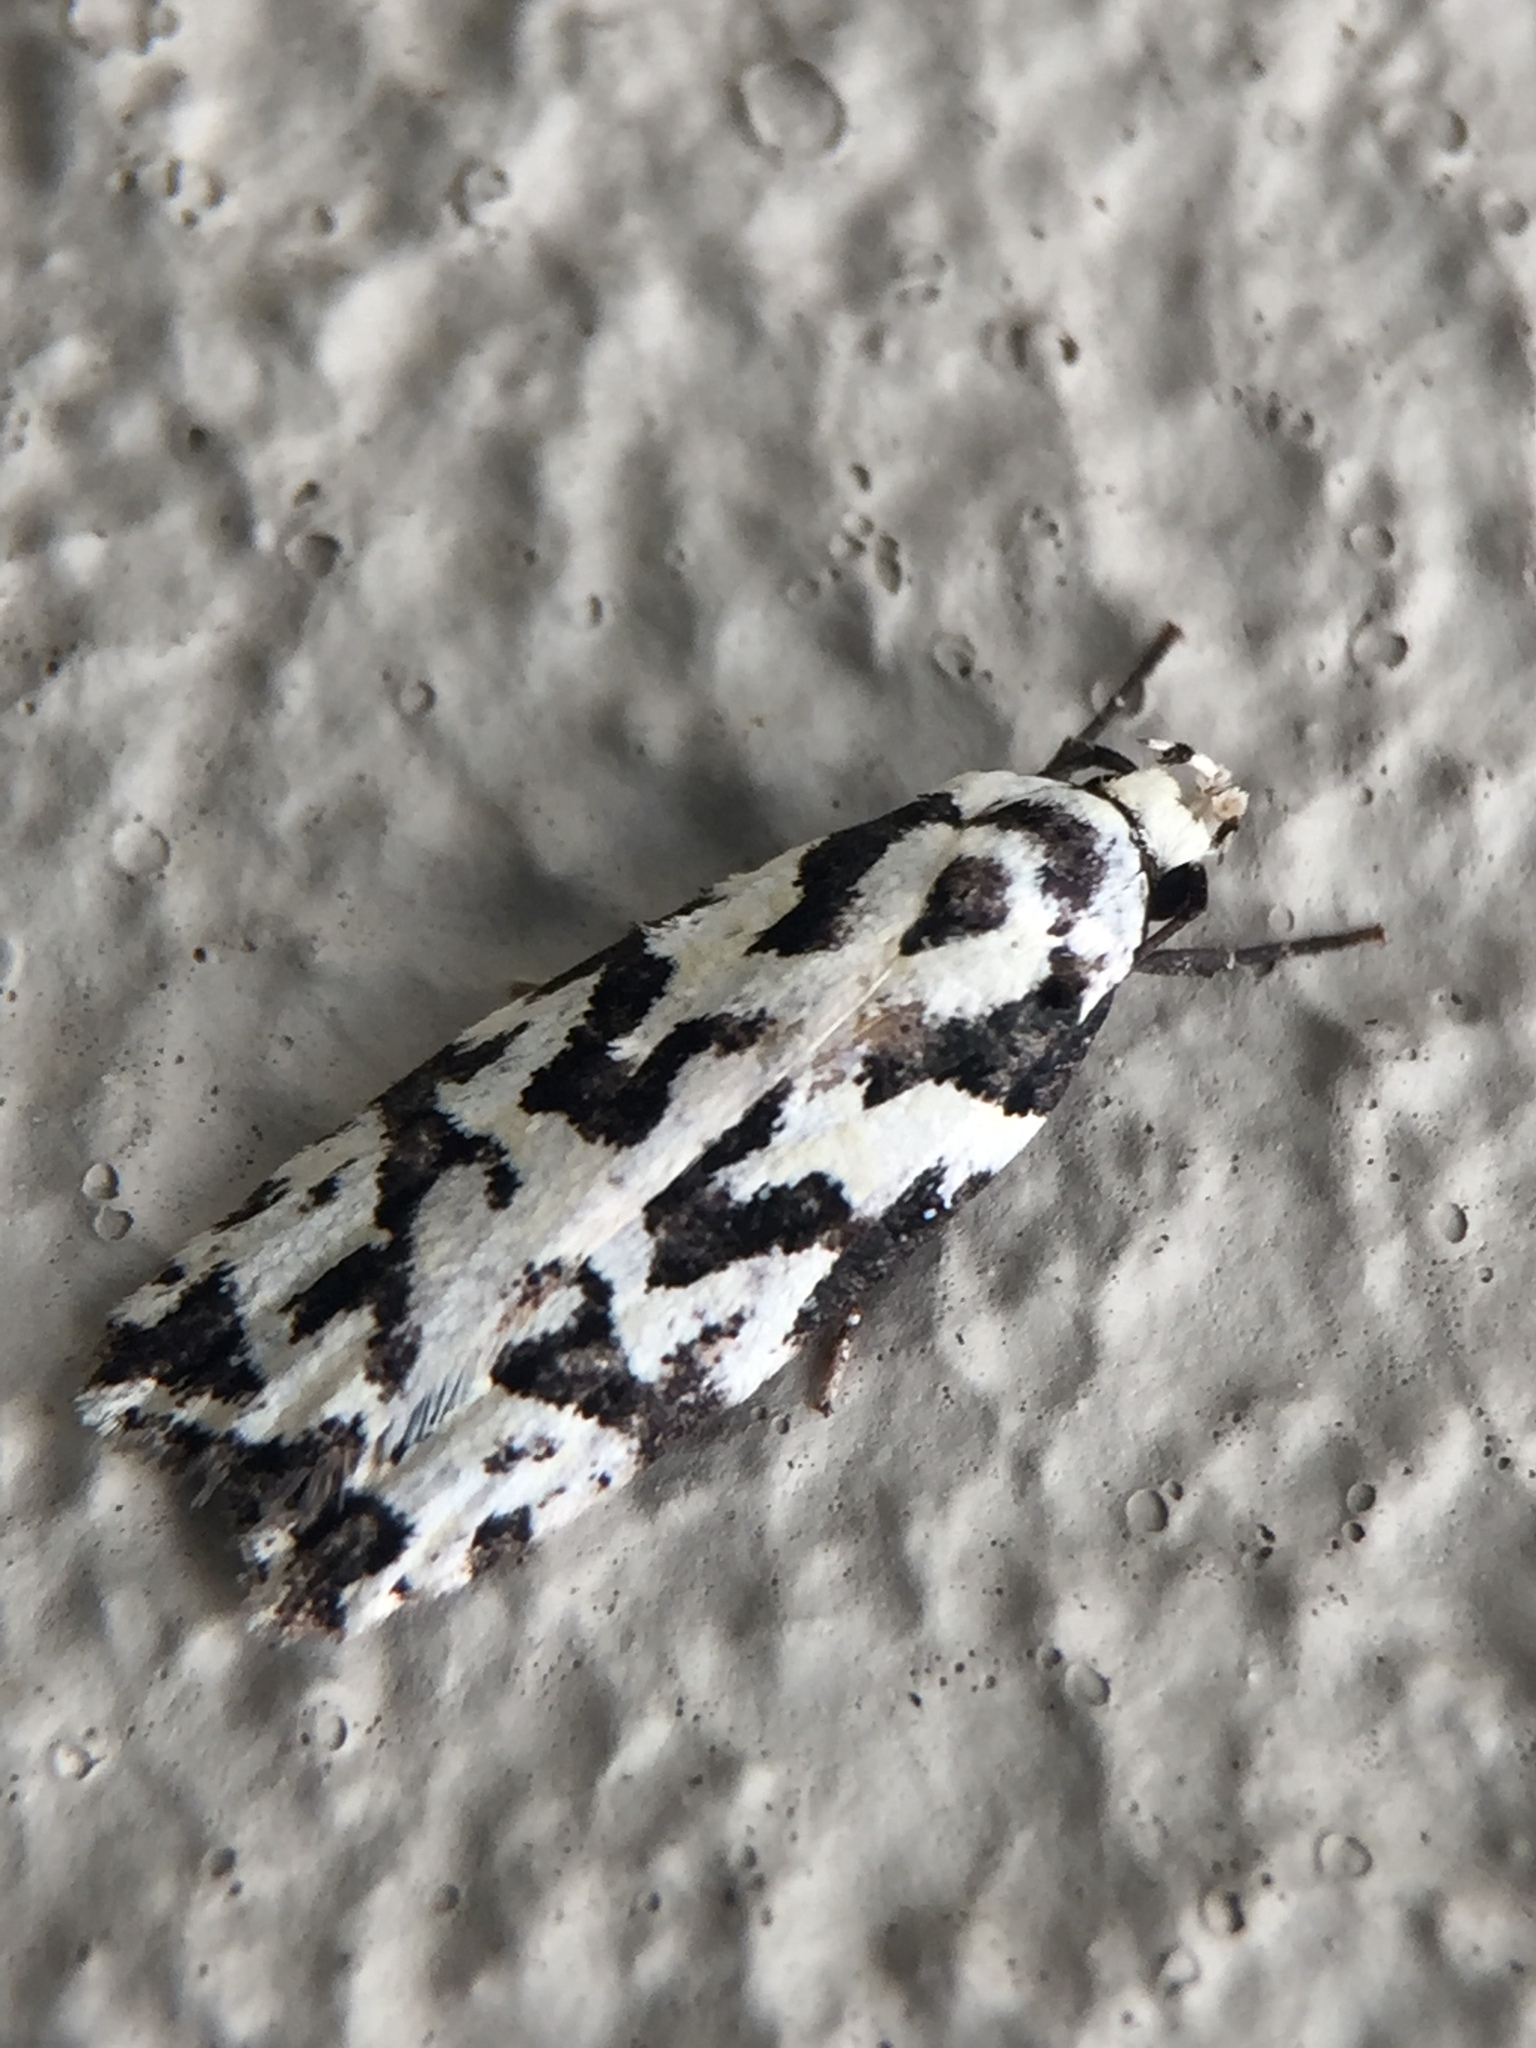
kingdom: Animalia
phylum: Arthropoda
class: Insecta
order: Lepidoptera
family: Oecophoridae
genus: Izatha
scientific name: Izatha
